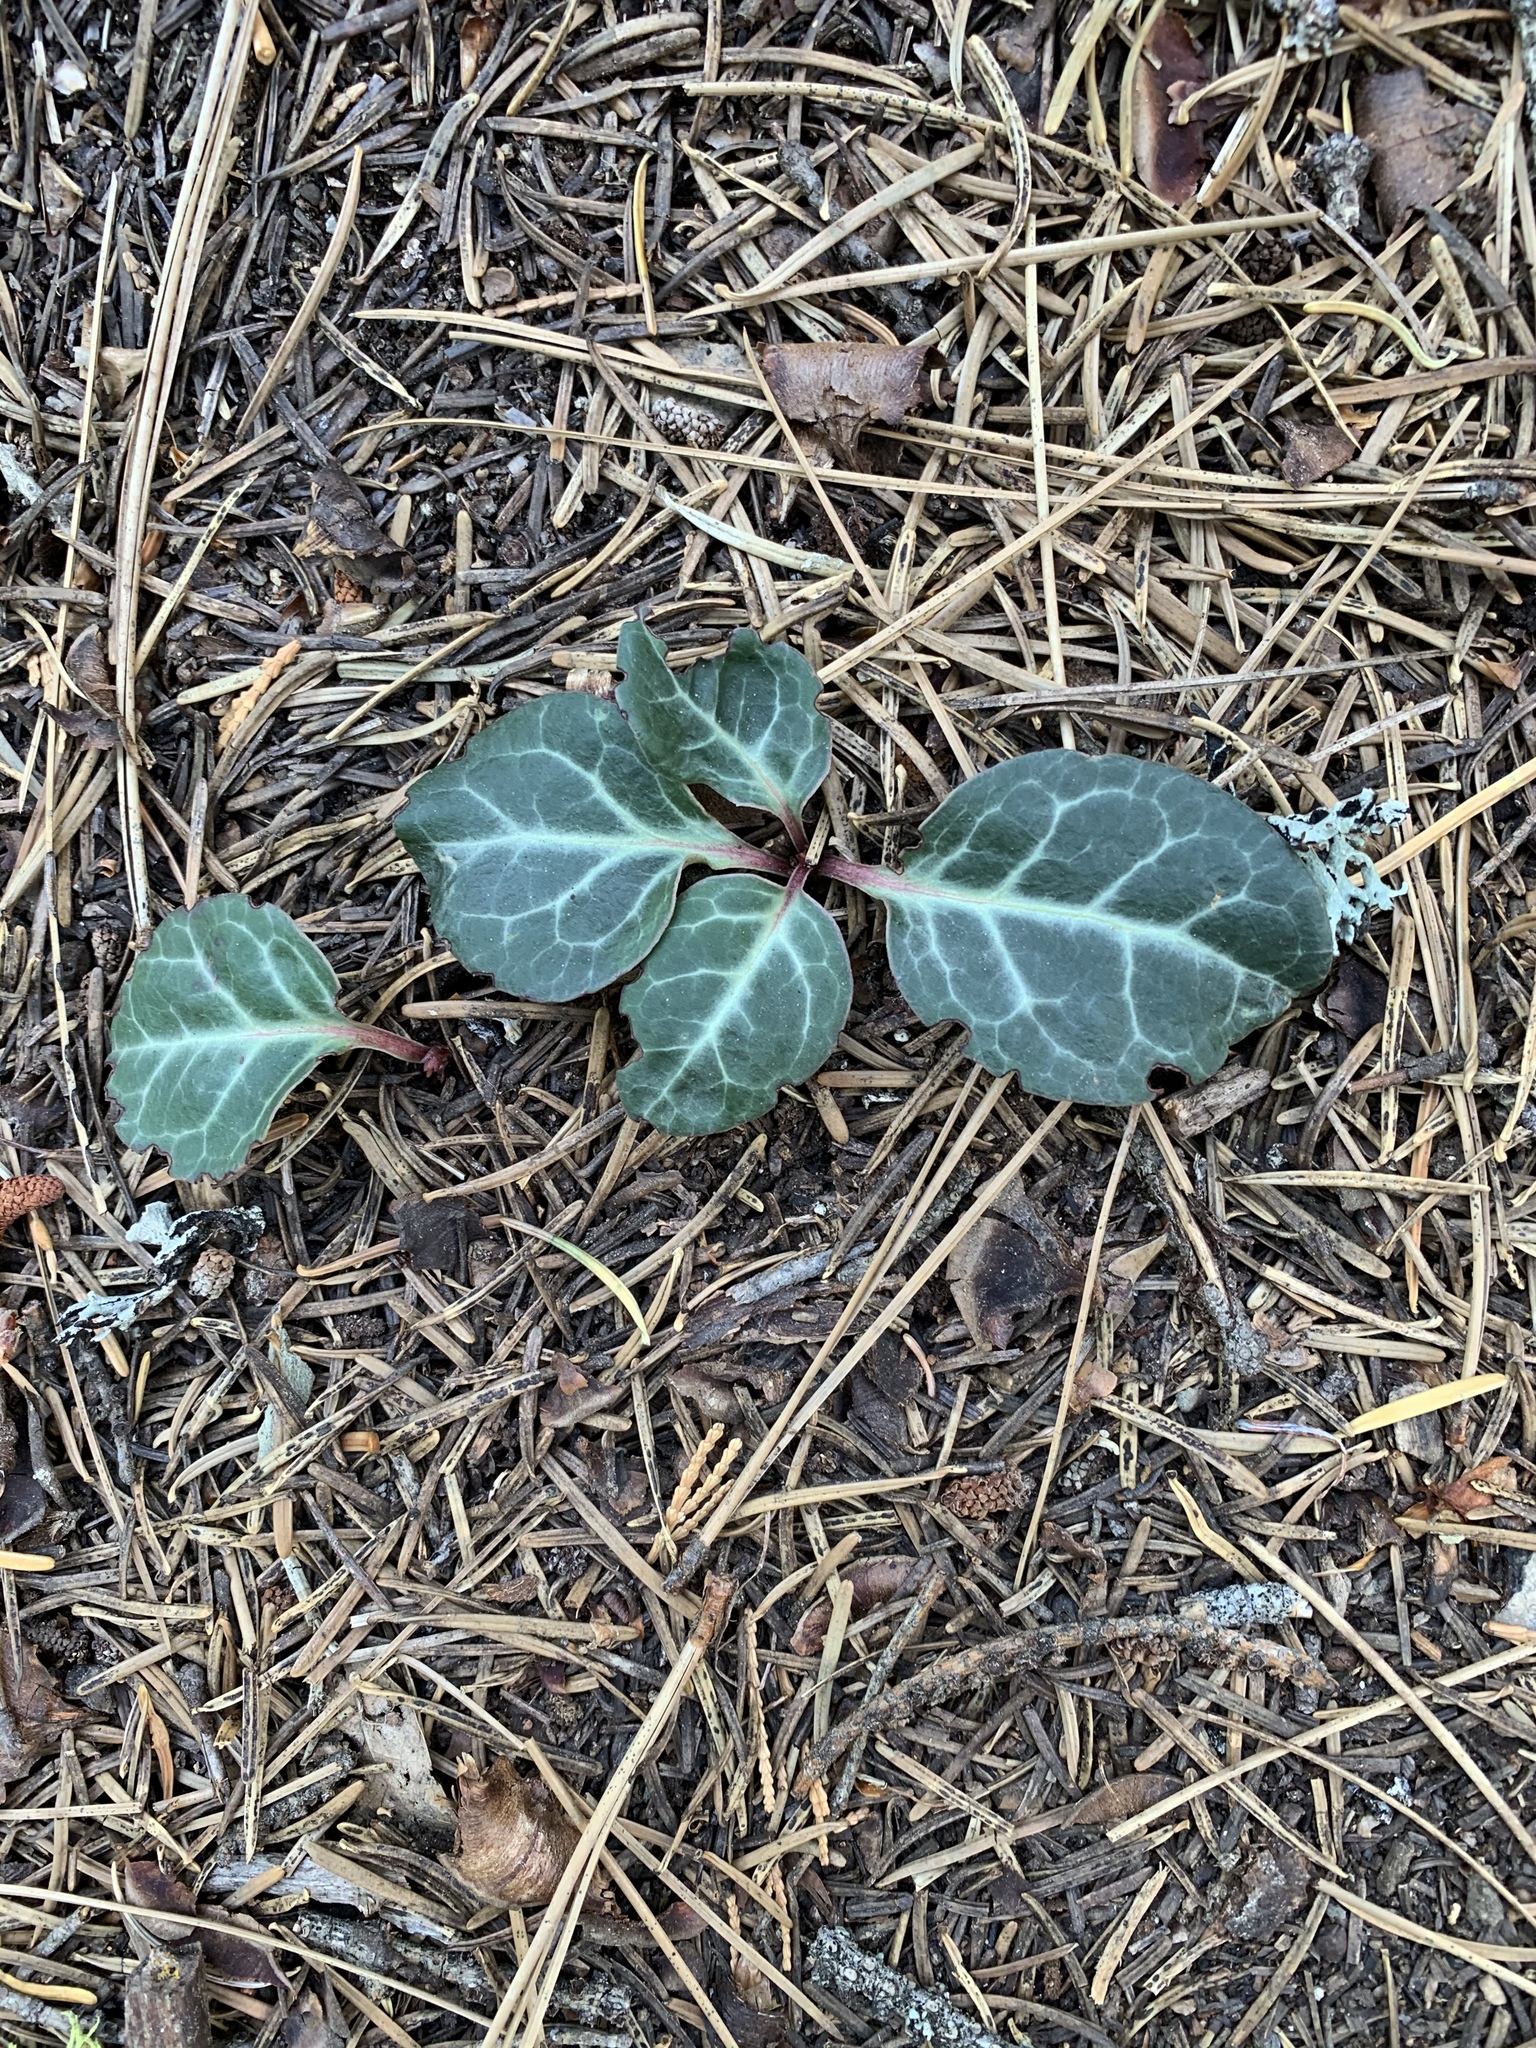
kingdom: Plantae
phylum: Tracheophyta
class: Magnoliopsida
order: Ericales
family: Ericaceae
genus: Pyrola
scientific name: Pyrola picta
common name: White-vein wintergreen
